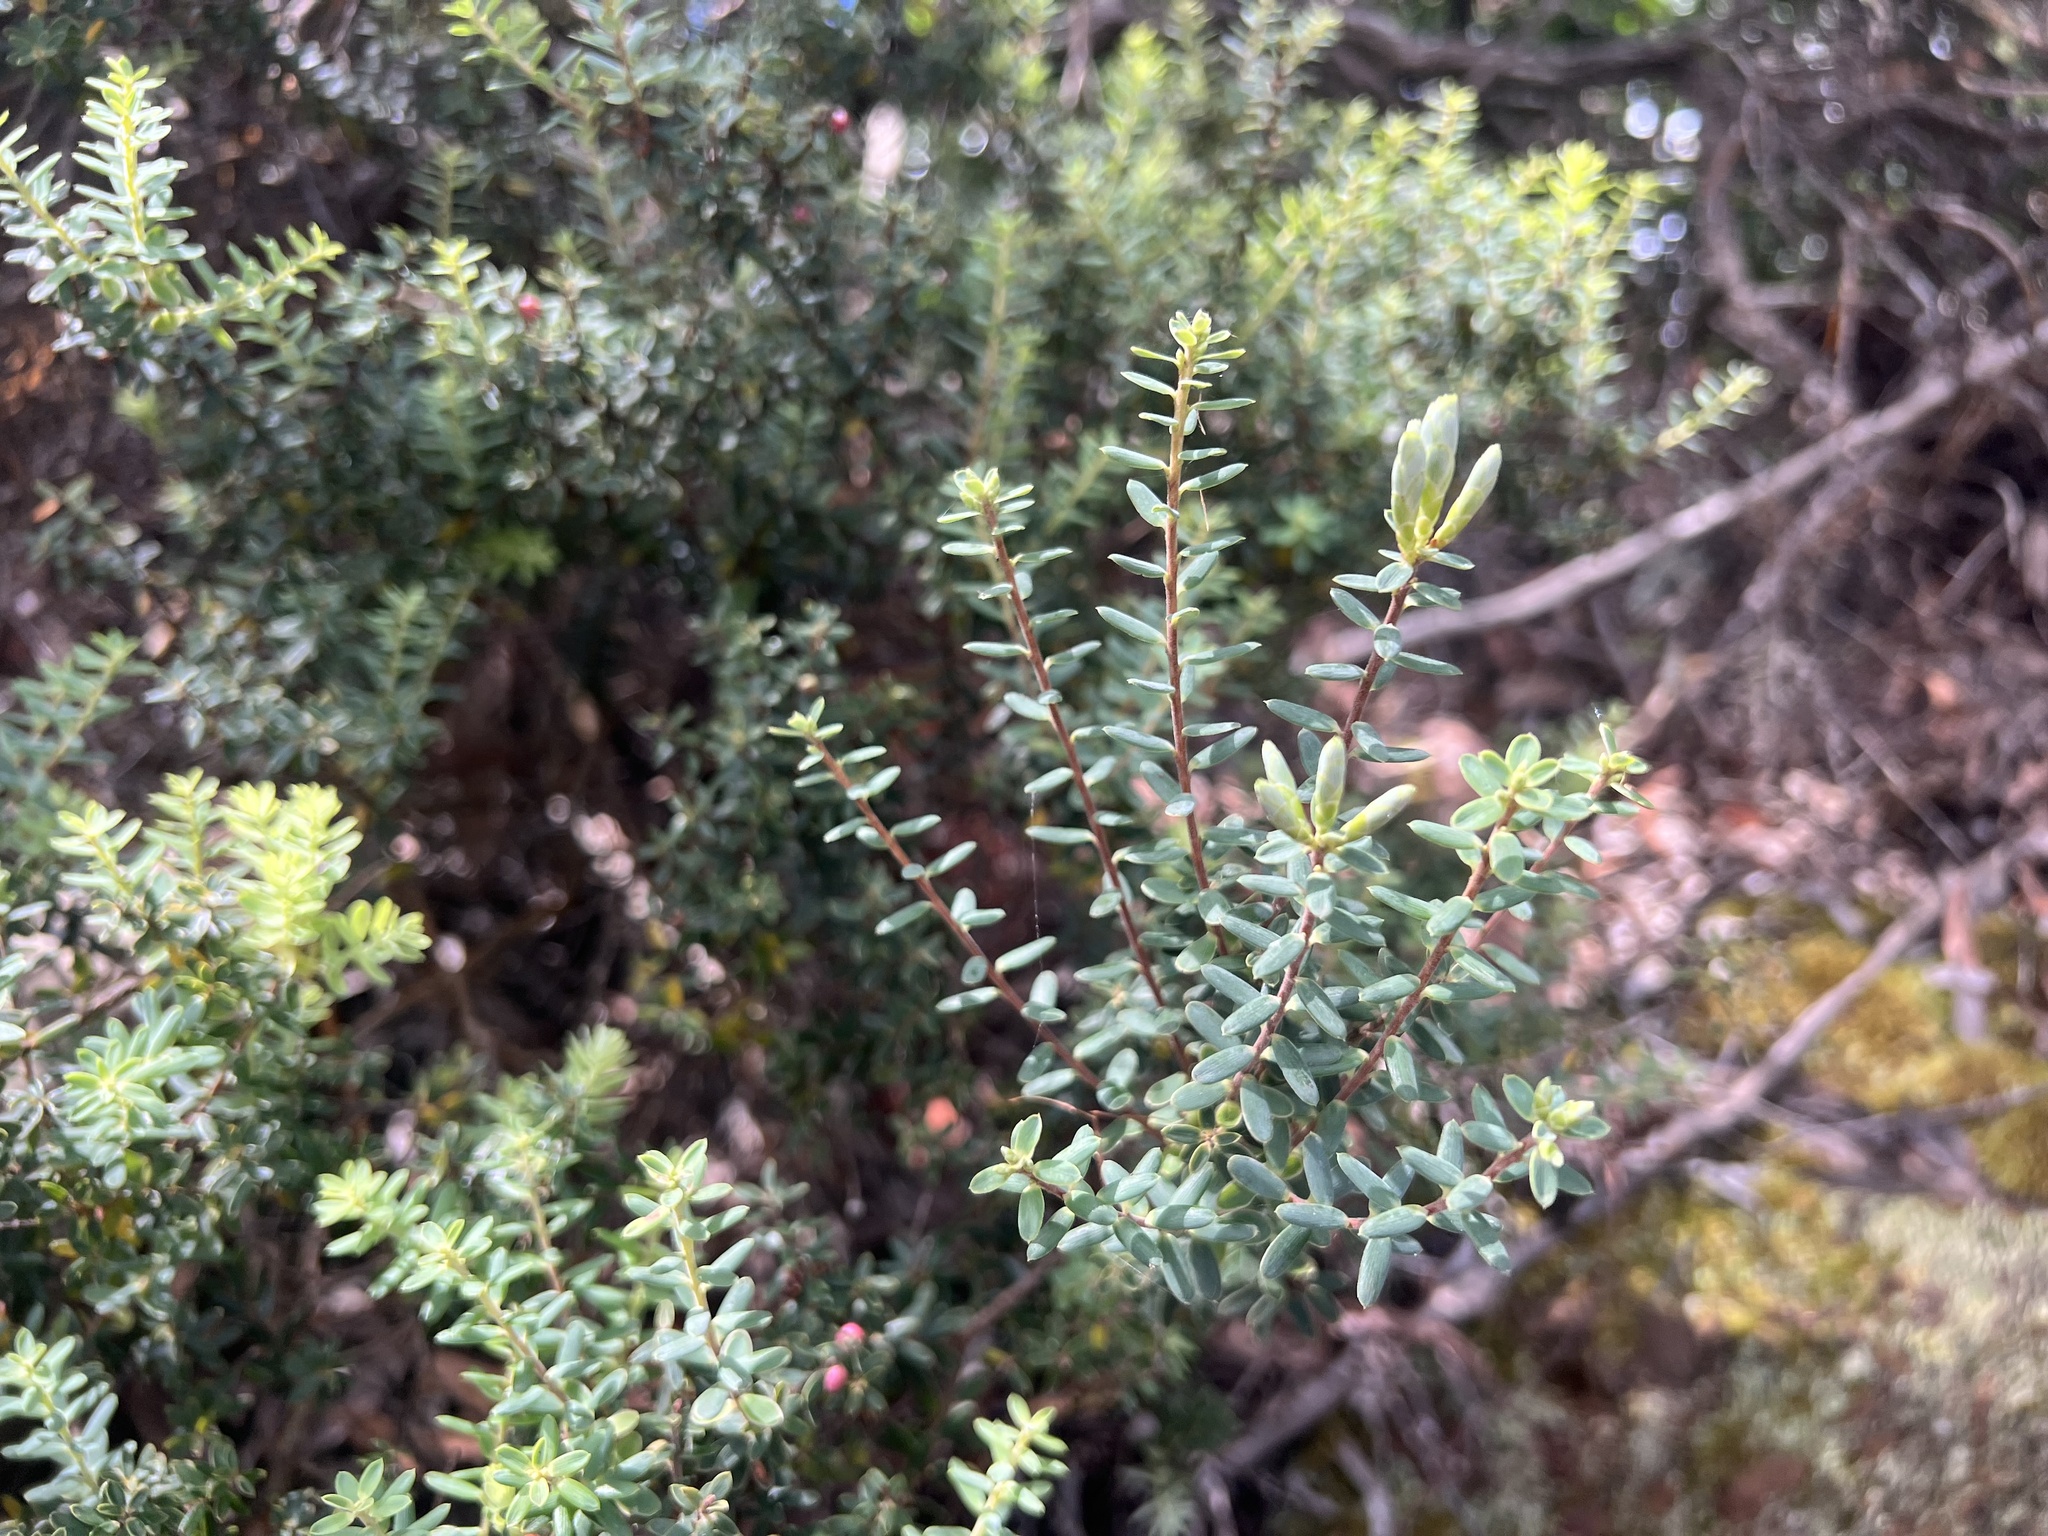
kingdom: Plantae
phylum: Tracheophyta
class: Magnoliopsida
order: Ericales
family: Ericaceae
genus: Leptecophylla
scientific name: Leptecophylla tameiameiae
